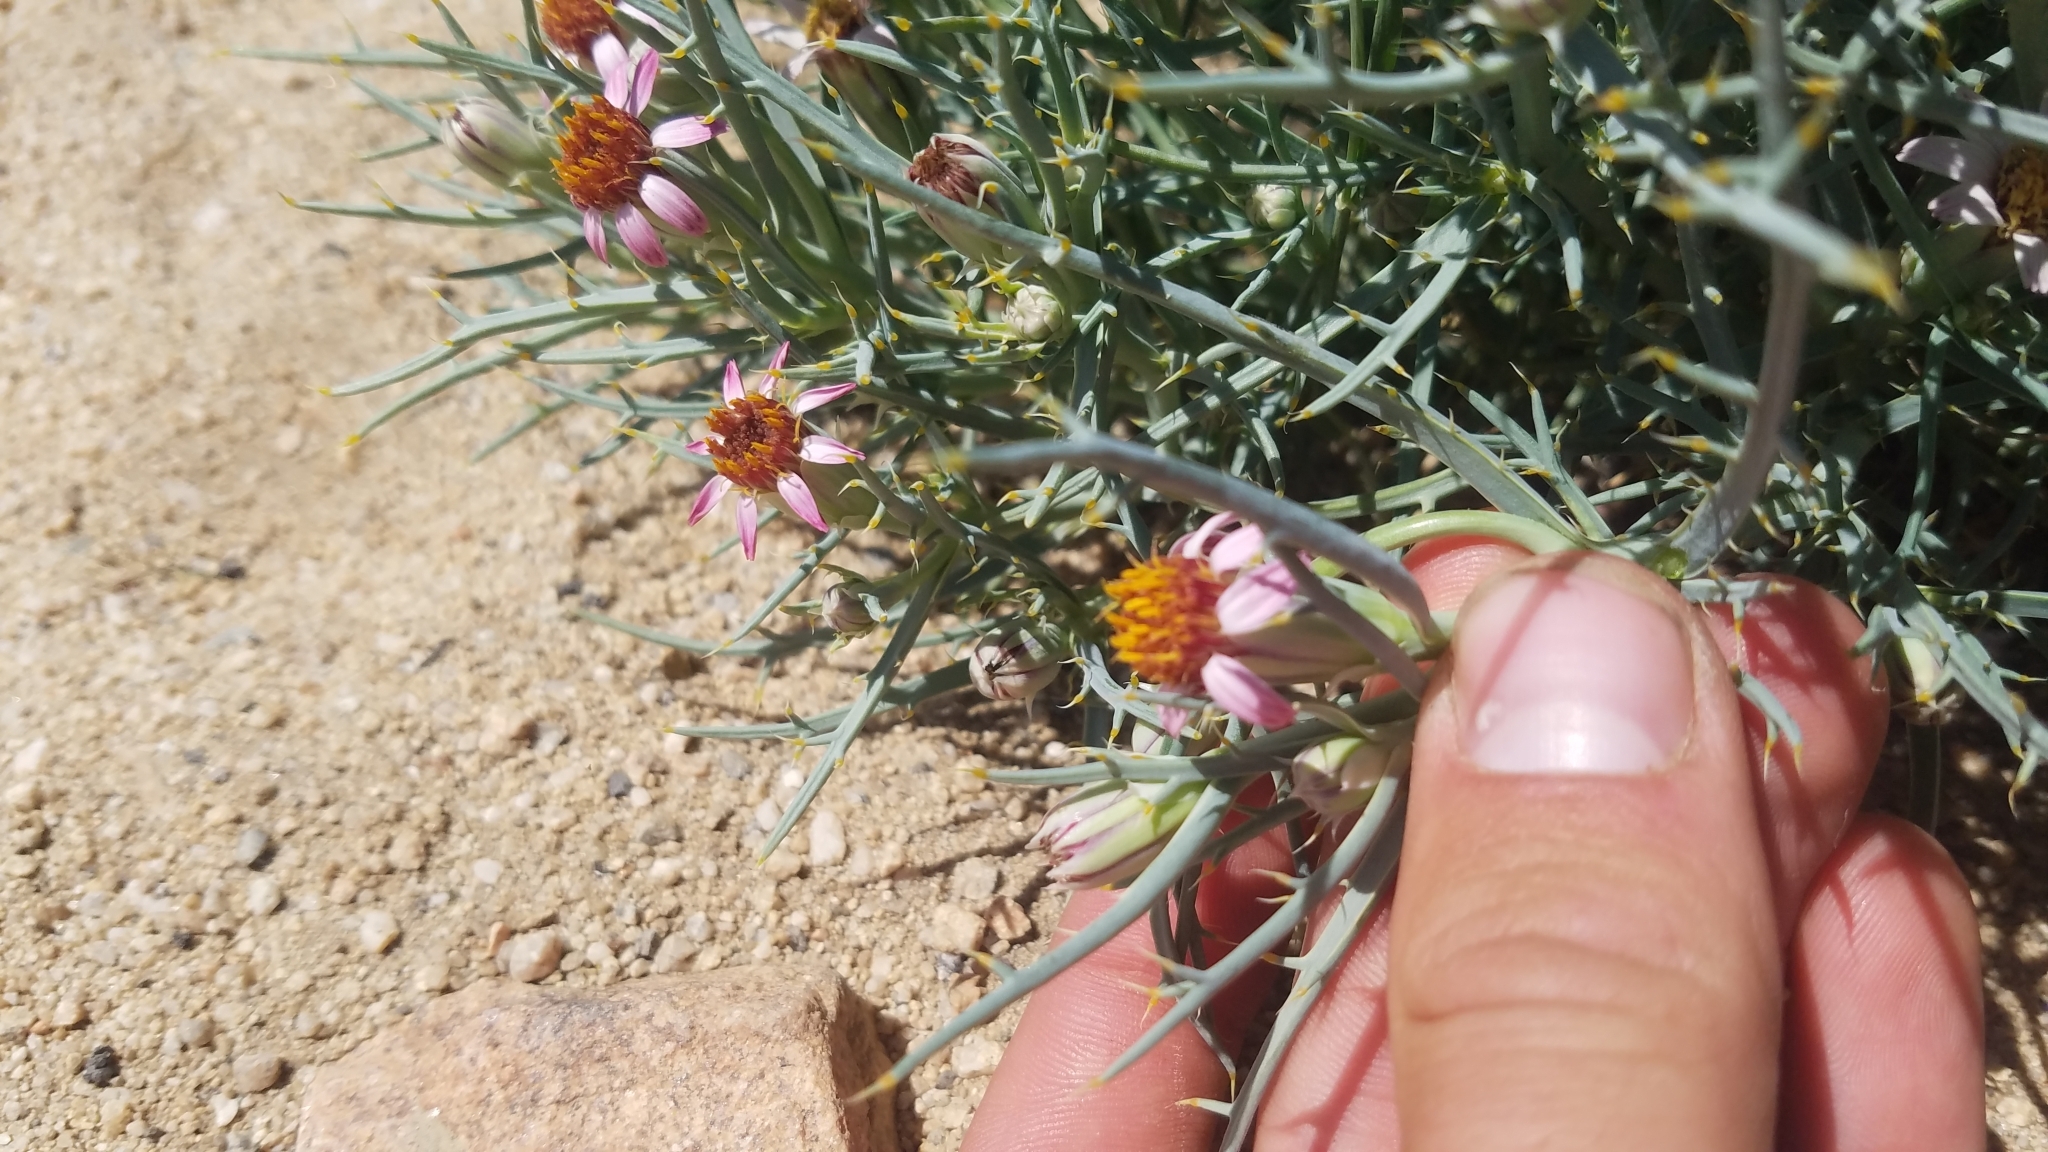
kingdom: Plantae
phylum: Tracheophyta
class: Magnoliopsida
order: Asterales
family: Asteraceae
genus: Nicolletia
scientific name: Nicolletia occidentalis
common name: Hole-in-the-sand-plant
